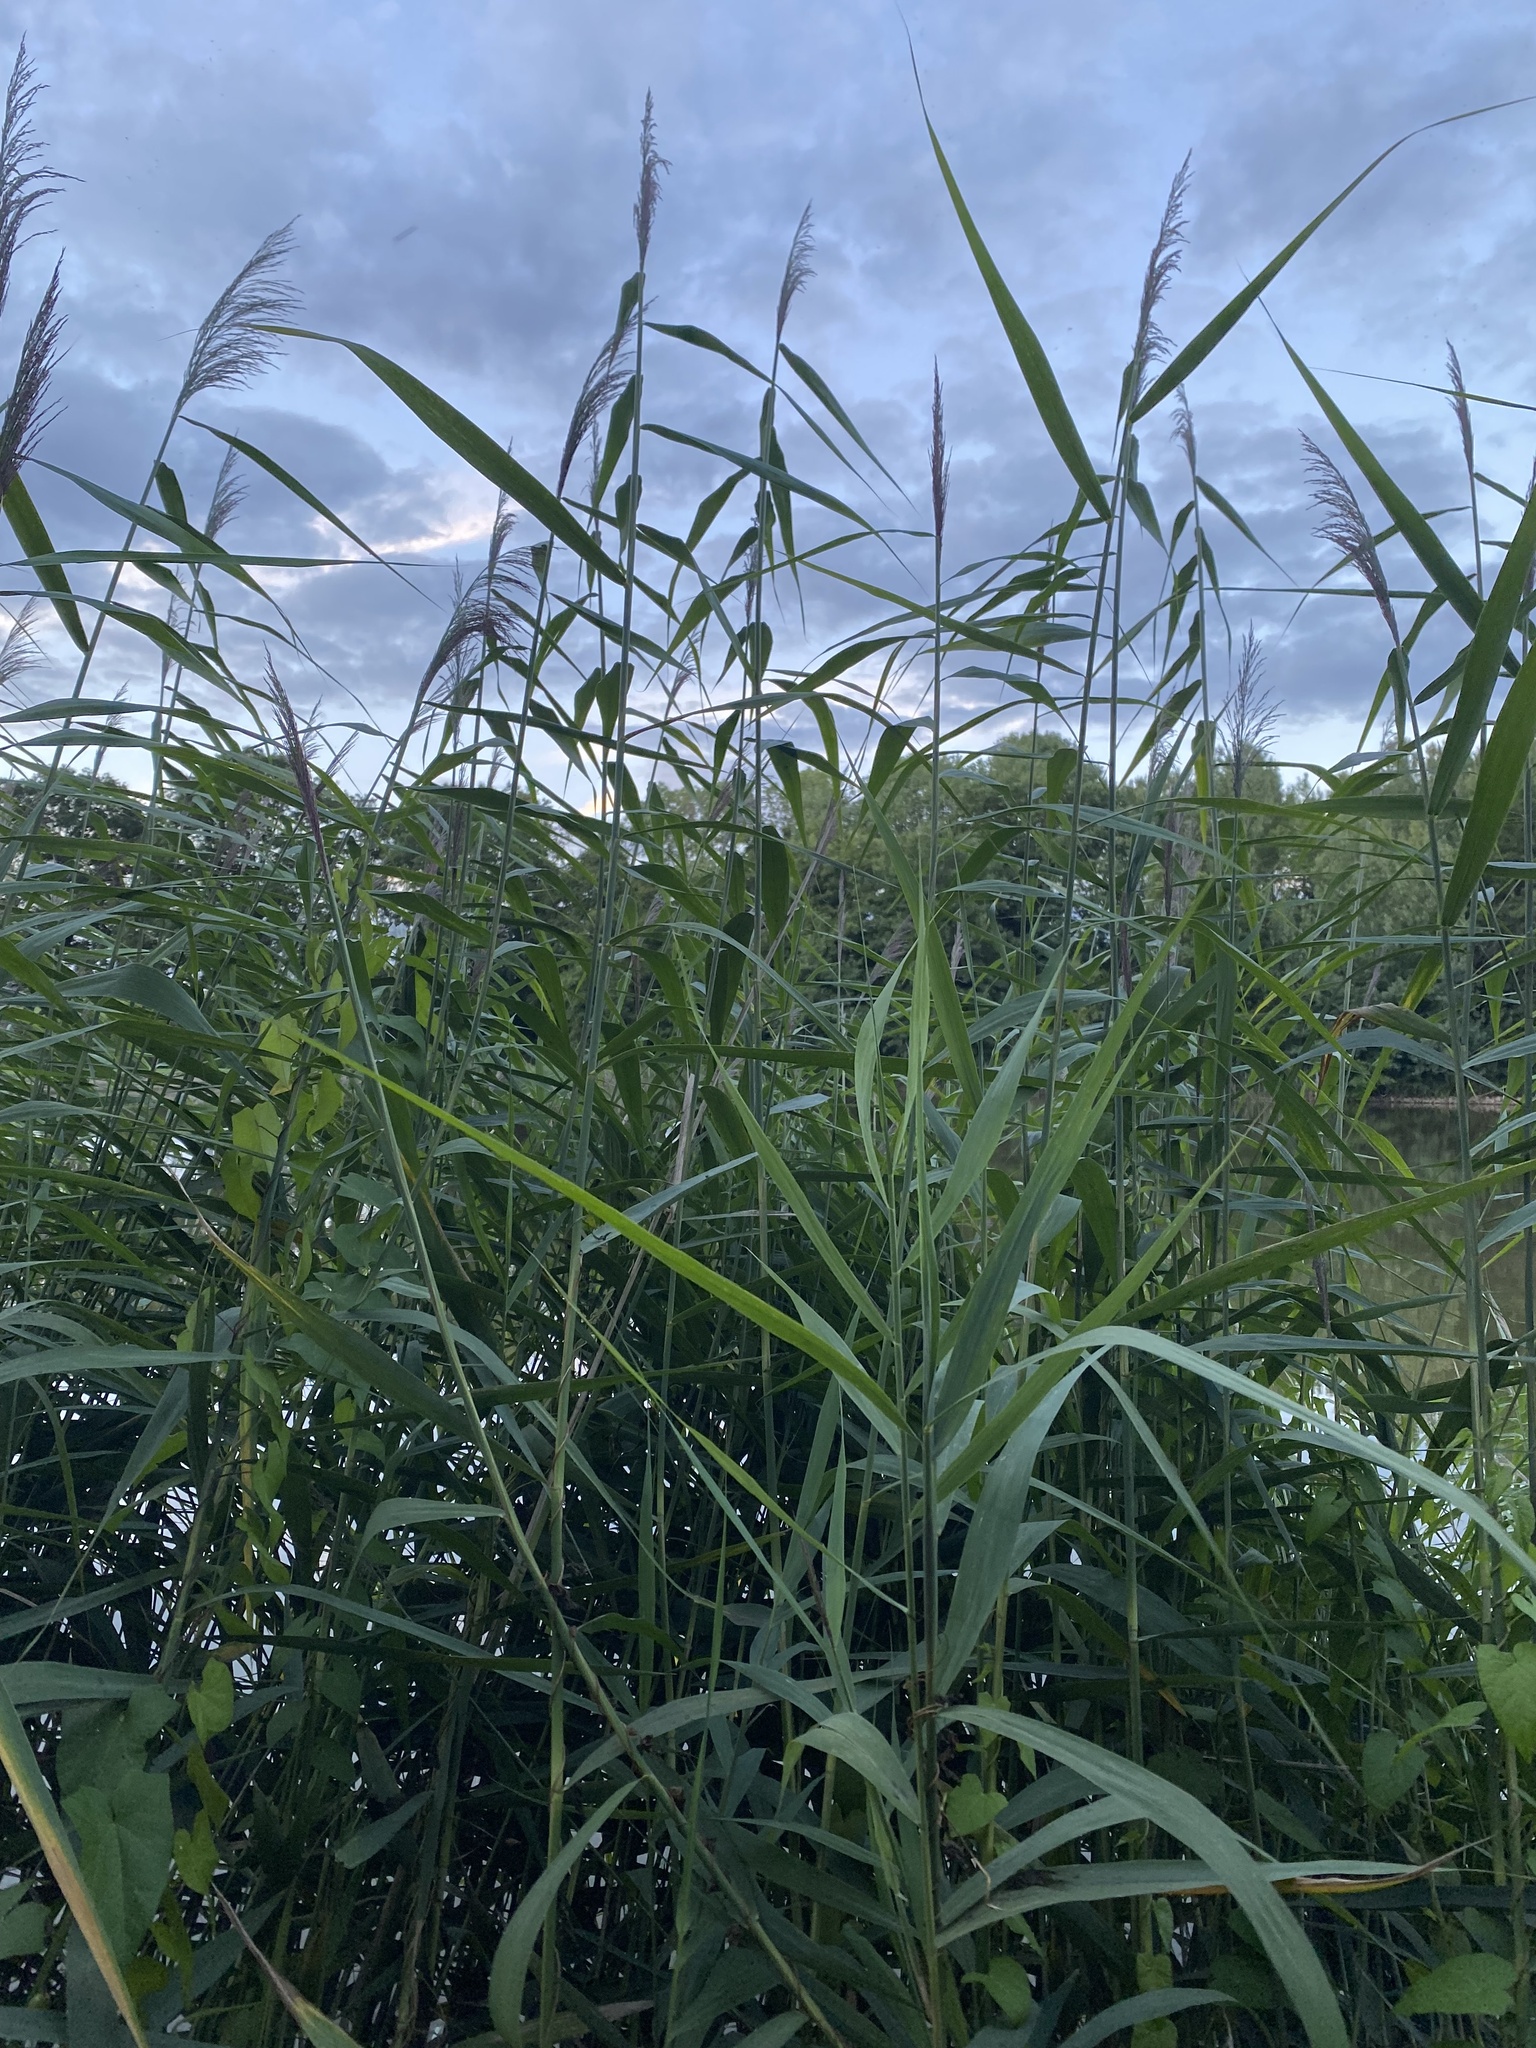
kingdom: Plantae
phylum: Tracheophyta
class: Liliopsida
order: Poales
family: Poaceae
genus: Phragmites
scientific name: Phragmites australis
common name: Common reed
